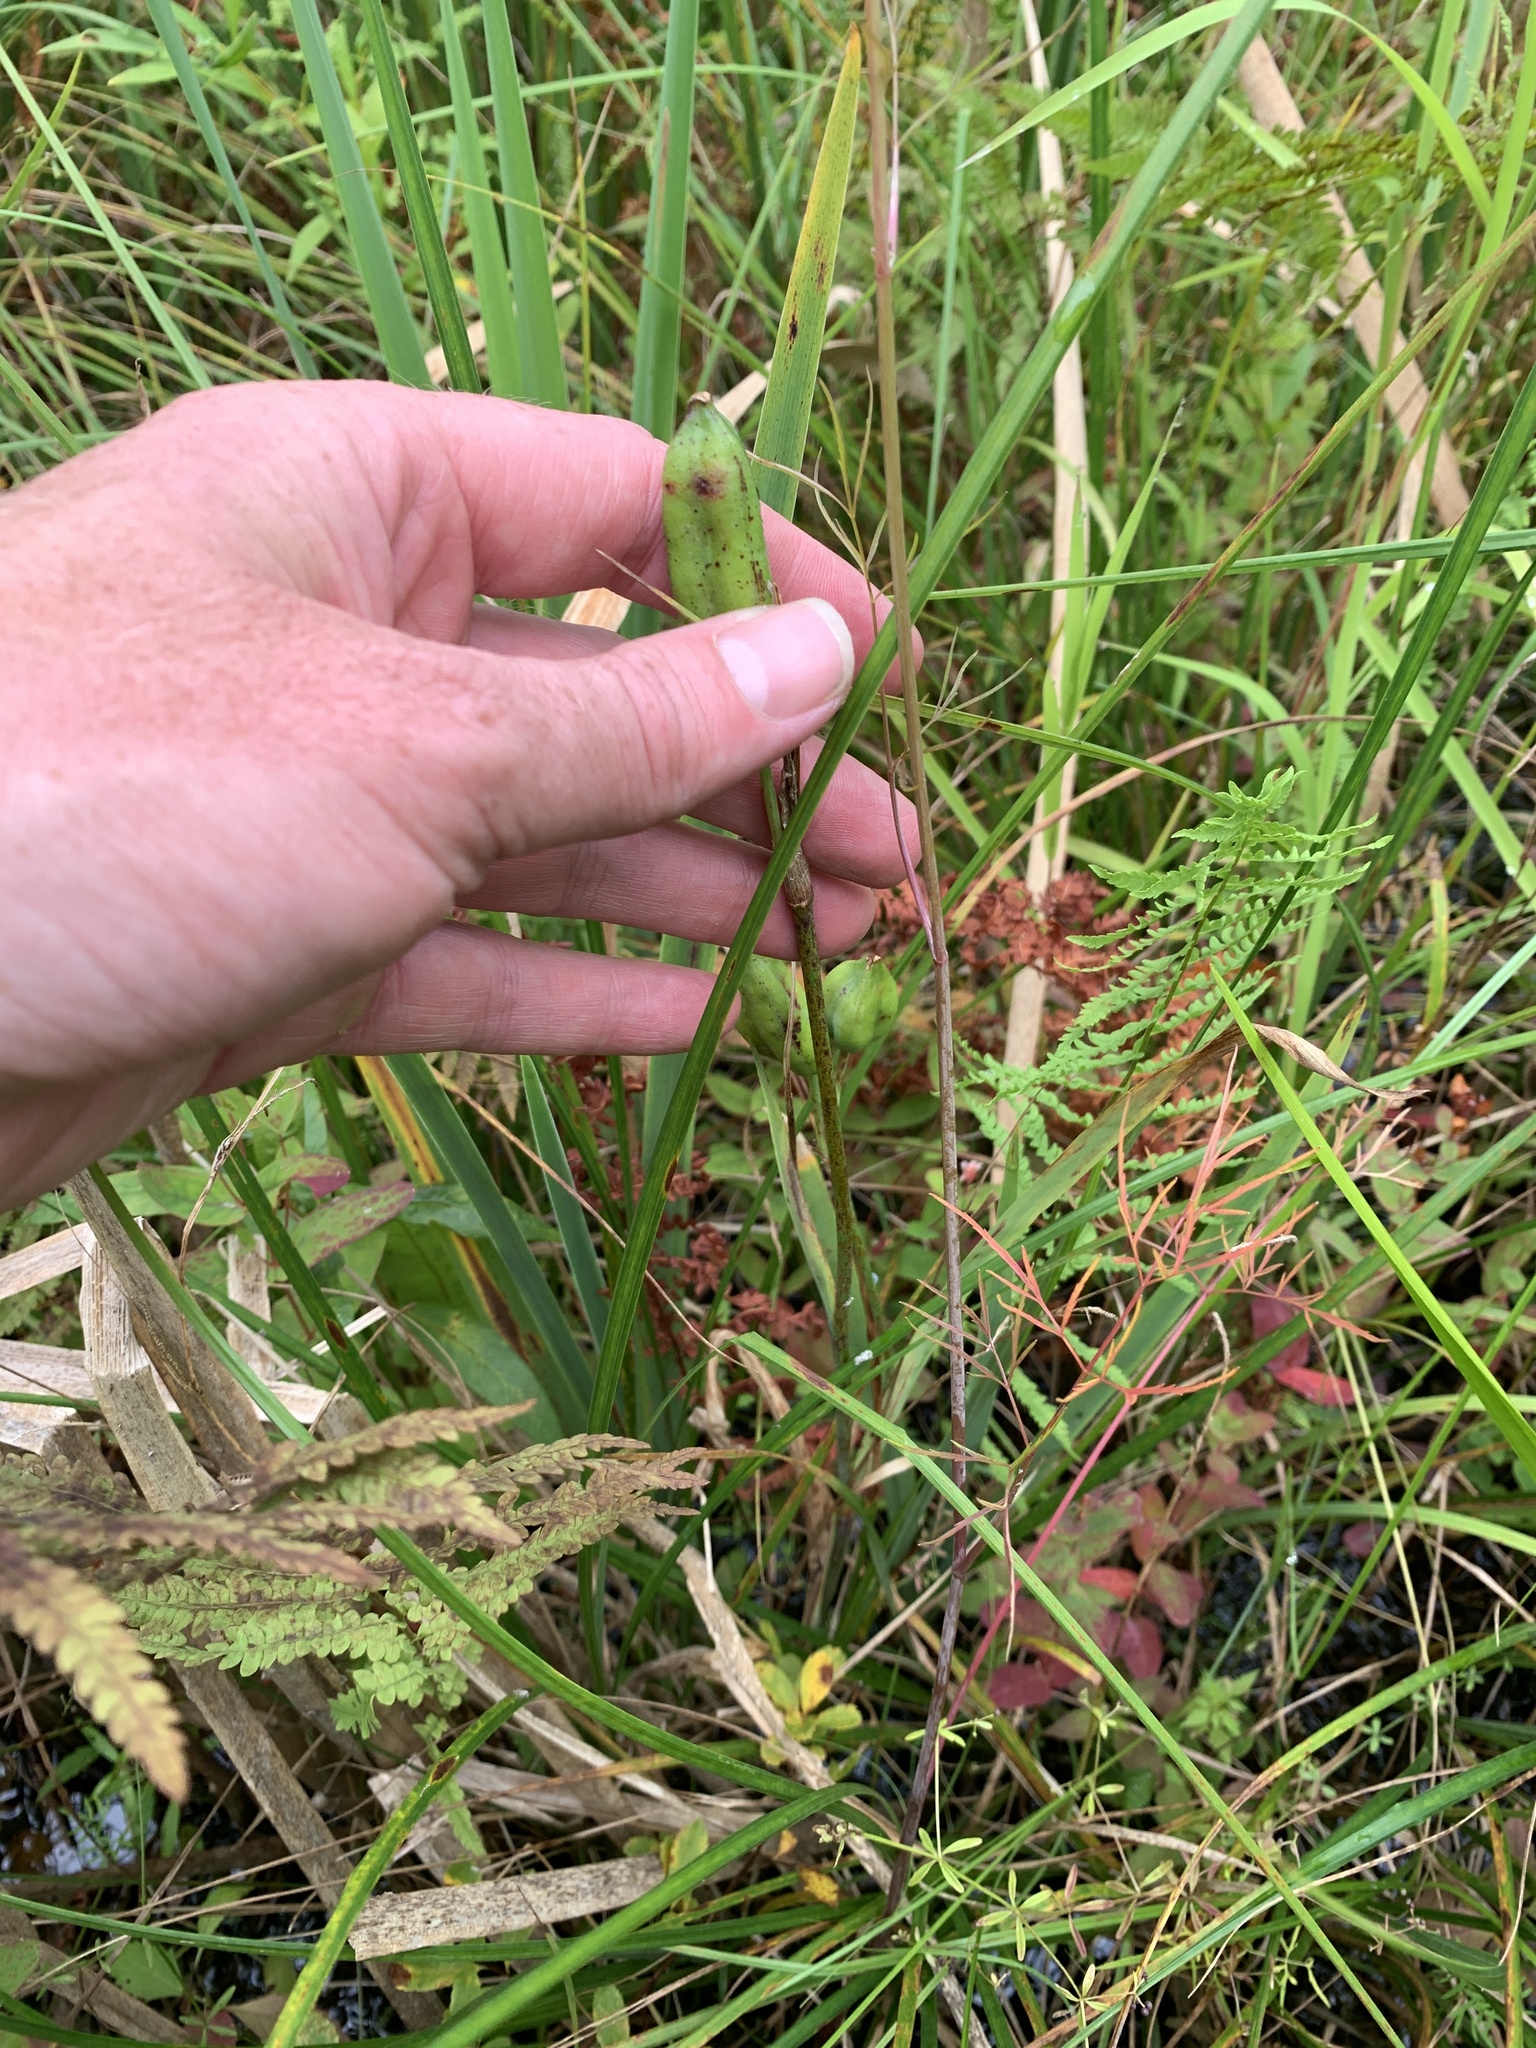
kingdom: Plantae
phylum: Tracheophyta
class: Liliopsida
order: Asparagales
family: Iridaceae
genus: Iris
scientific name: Iris versicolor
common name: Purple iris
